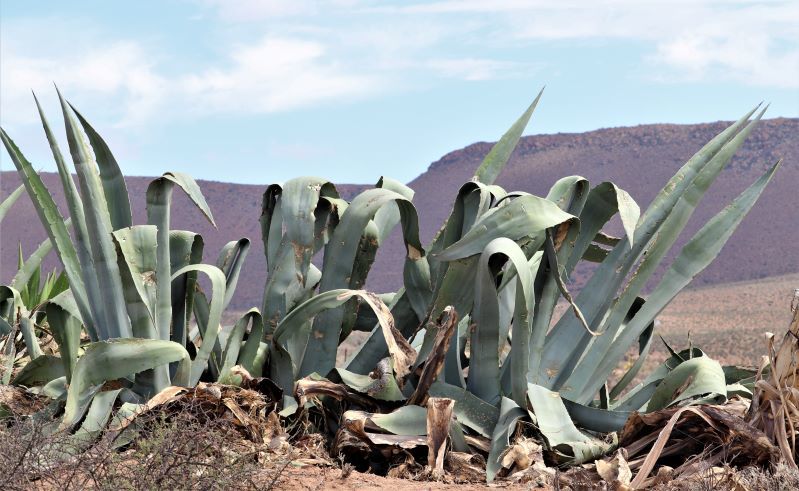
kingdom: Plantae
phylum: Tracheophyta
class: Liliopsida
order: Asparagales
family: Asparagaceae
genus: Agave
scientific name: Agave americana
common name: Centuryplant
